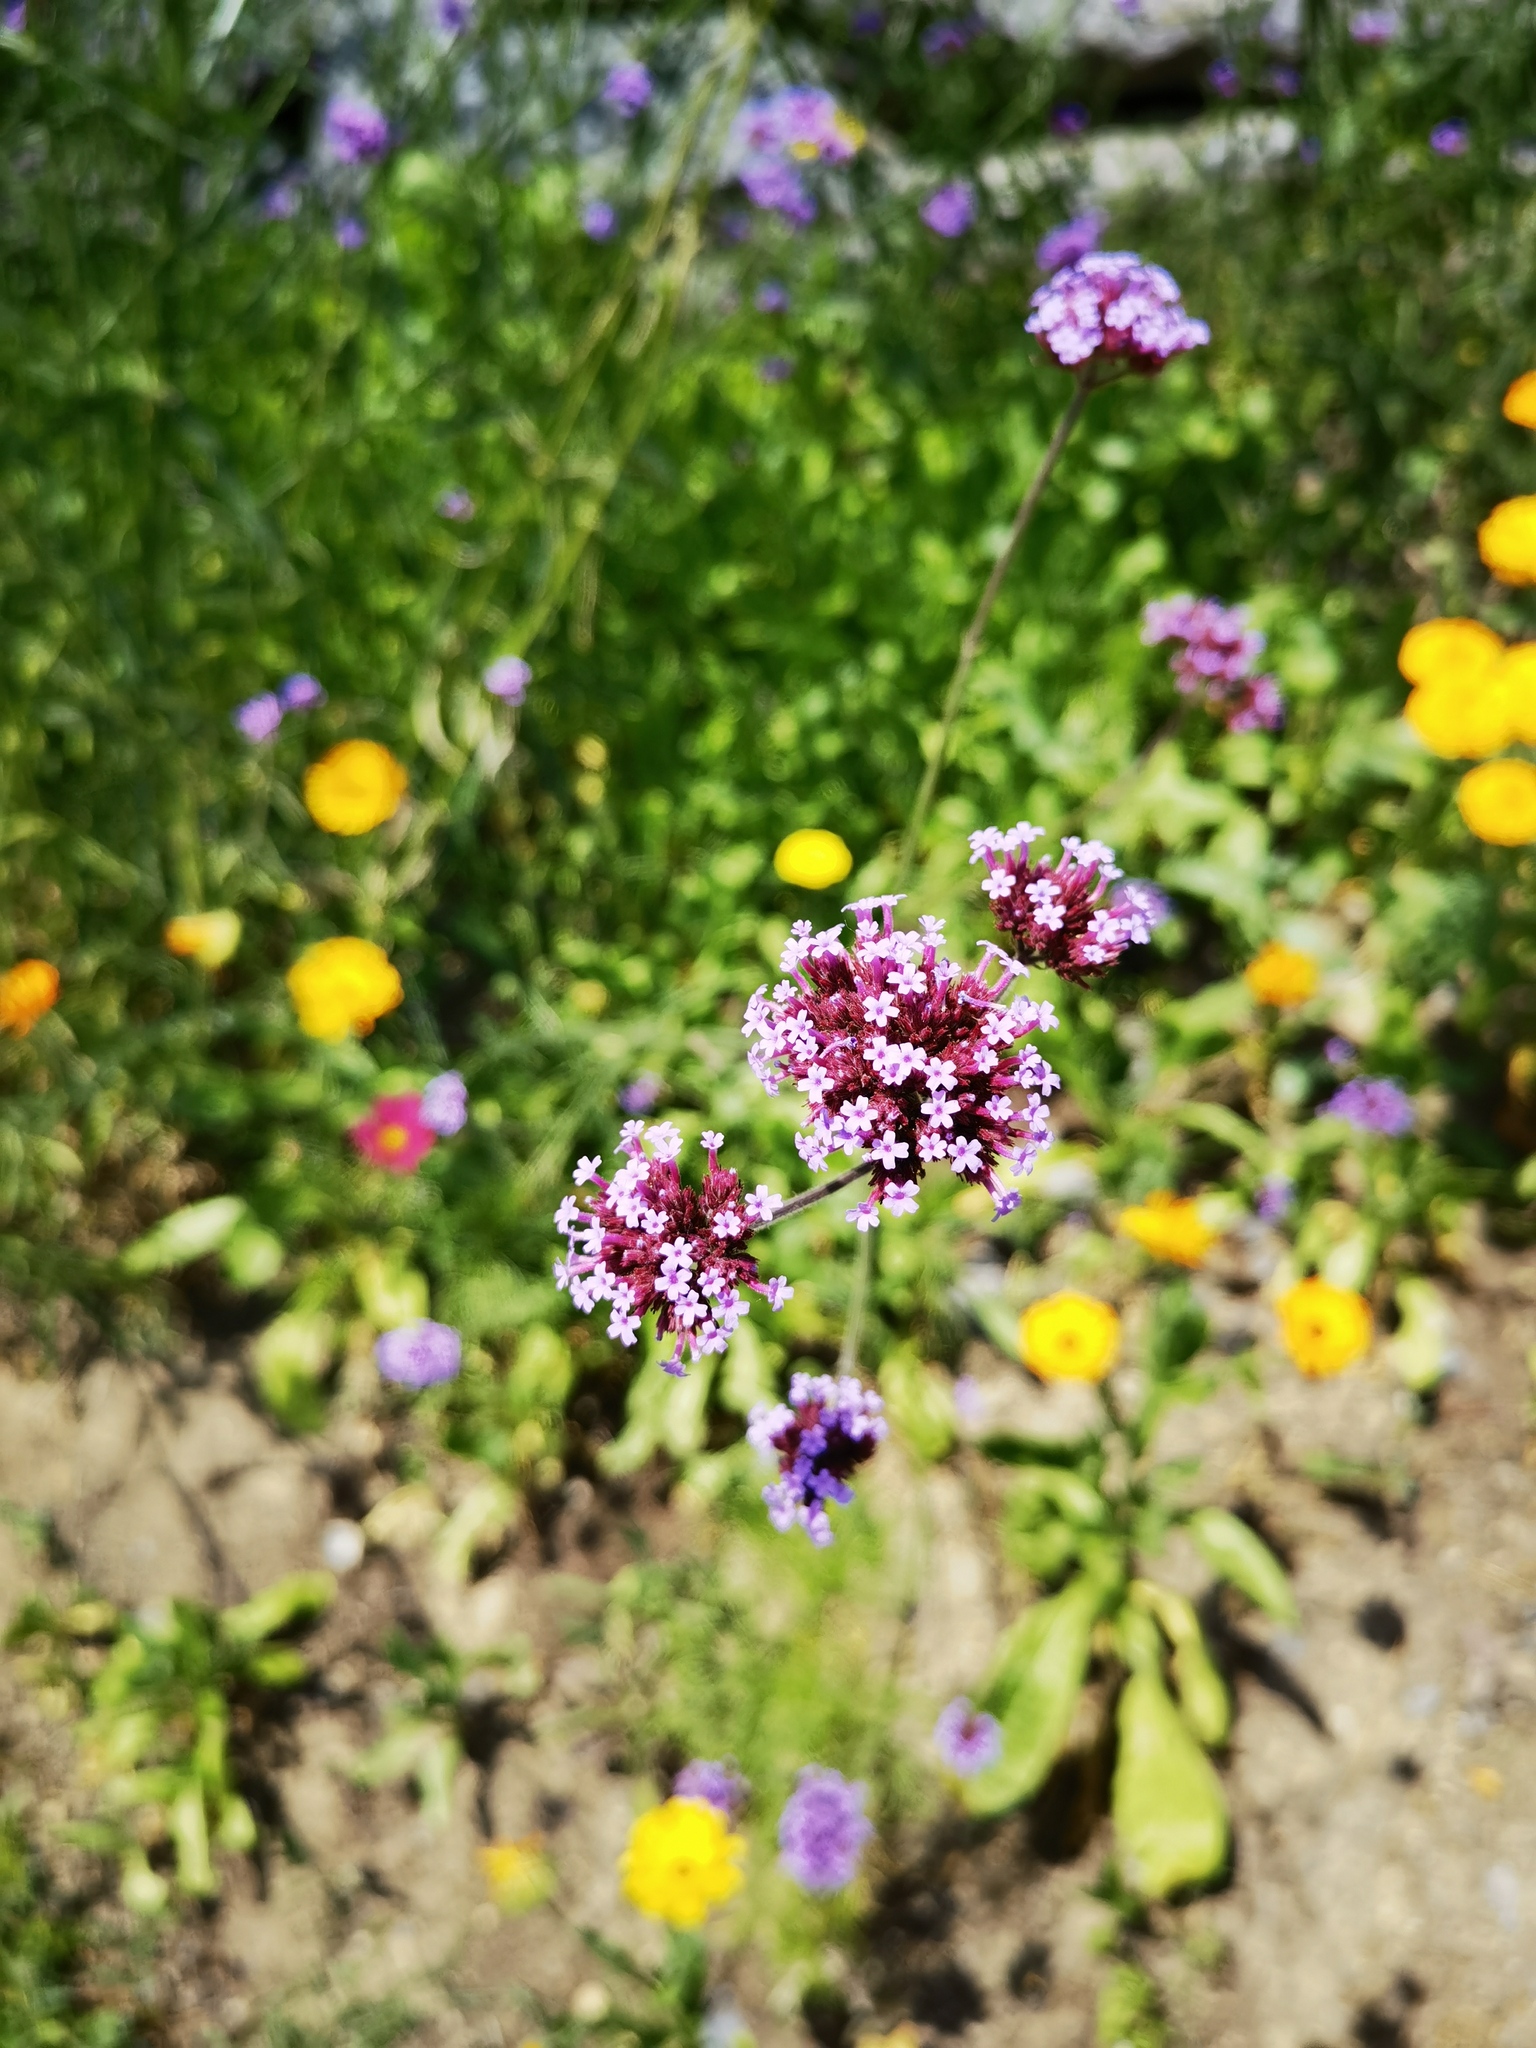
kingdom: Plantae
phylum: Tracheophyta
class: Magnoliopsida
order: Lamiales
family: Verbenaceae
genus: Verbena
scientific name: Verbena bonariensis
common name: Purpletop vervain
